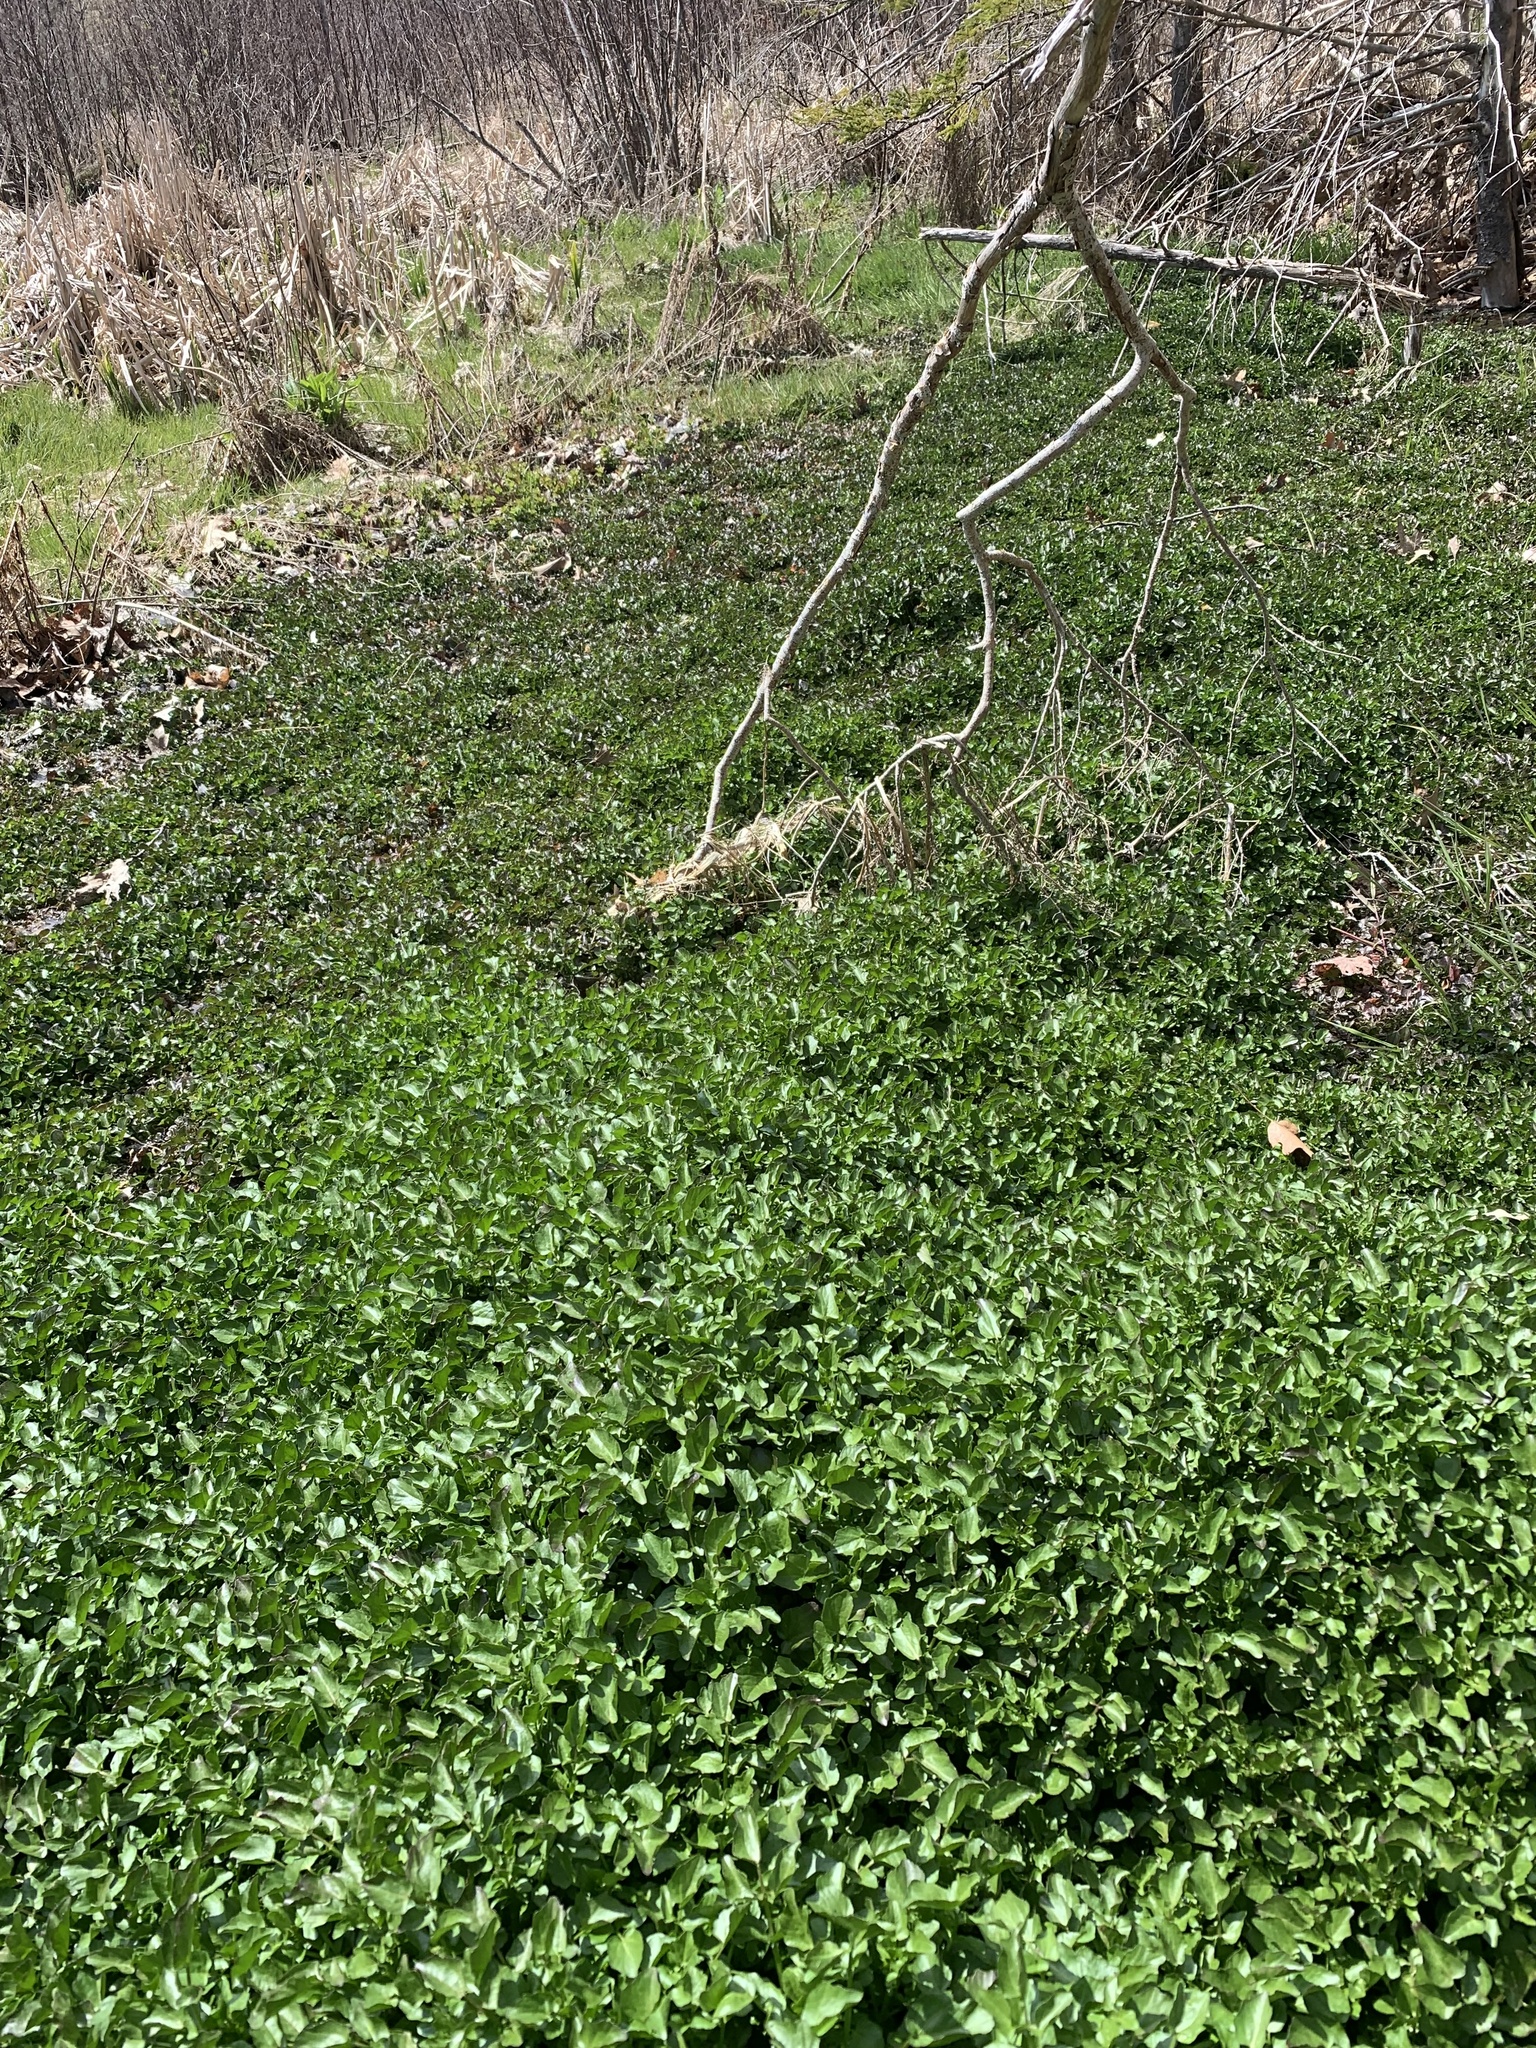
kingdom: Plantae
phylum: Tracheophyta
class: Magnoliopsida
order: Brassicales
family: Brassicaceae
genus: Nasturtium
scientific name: Nasturtium officinale
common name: Watercress
